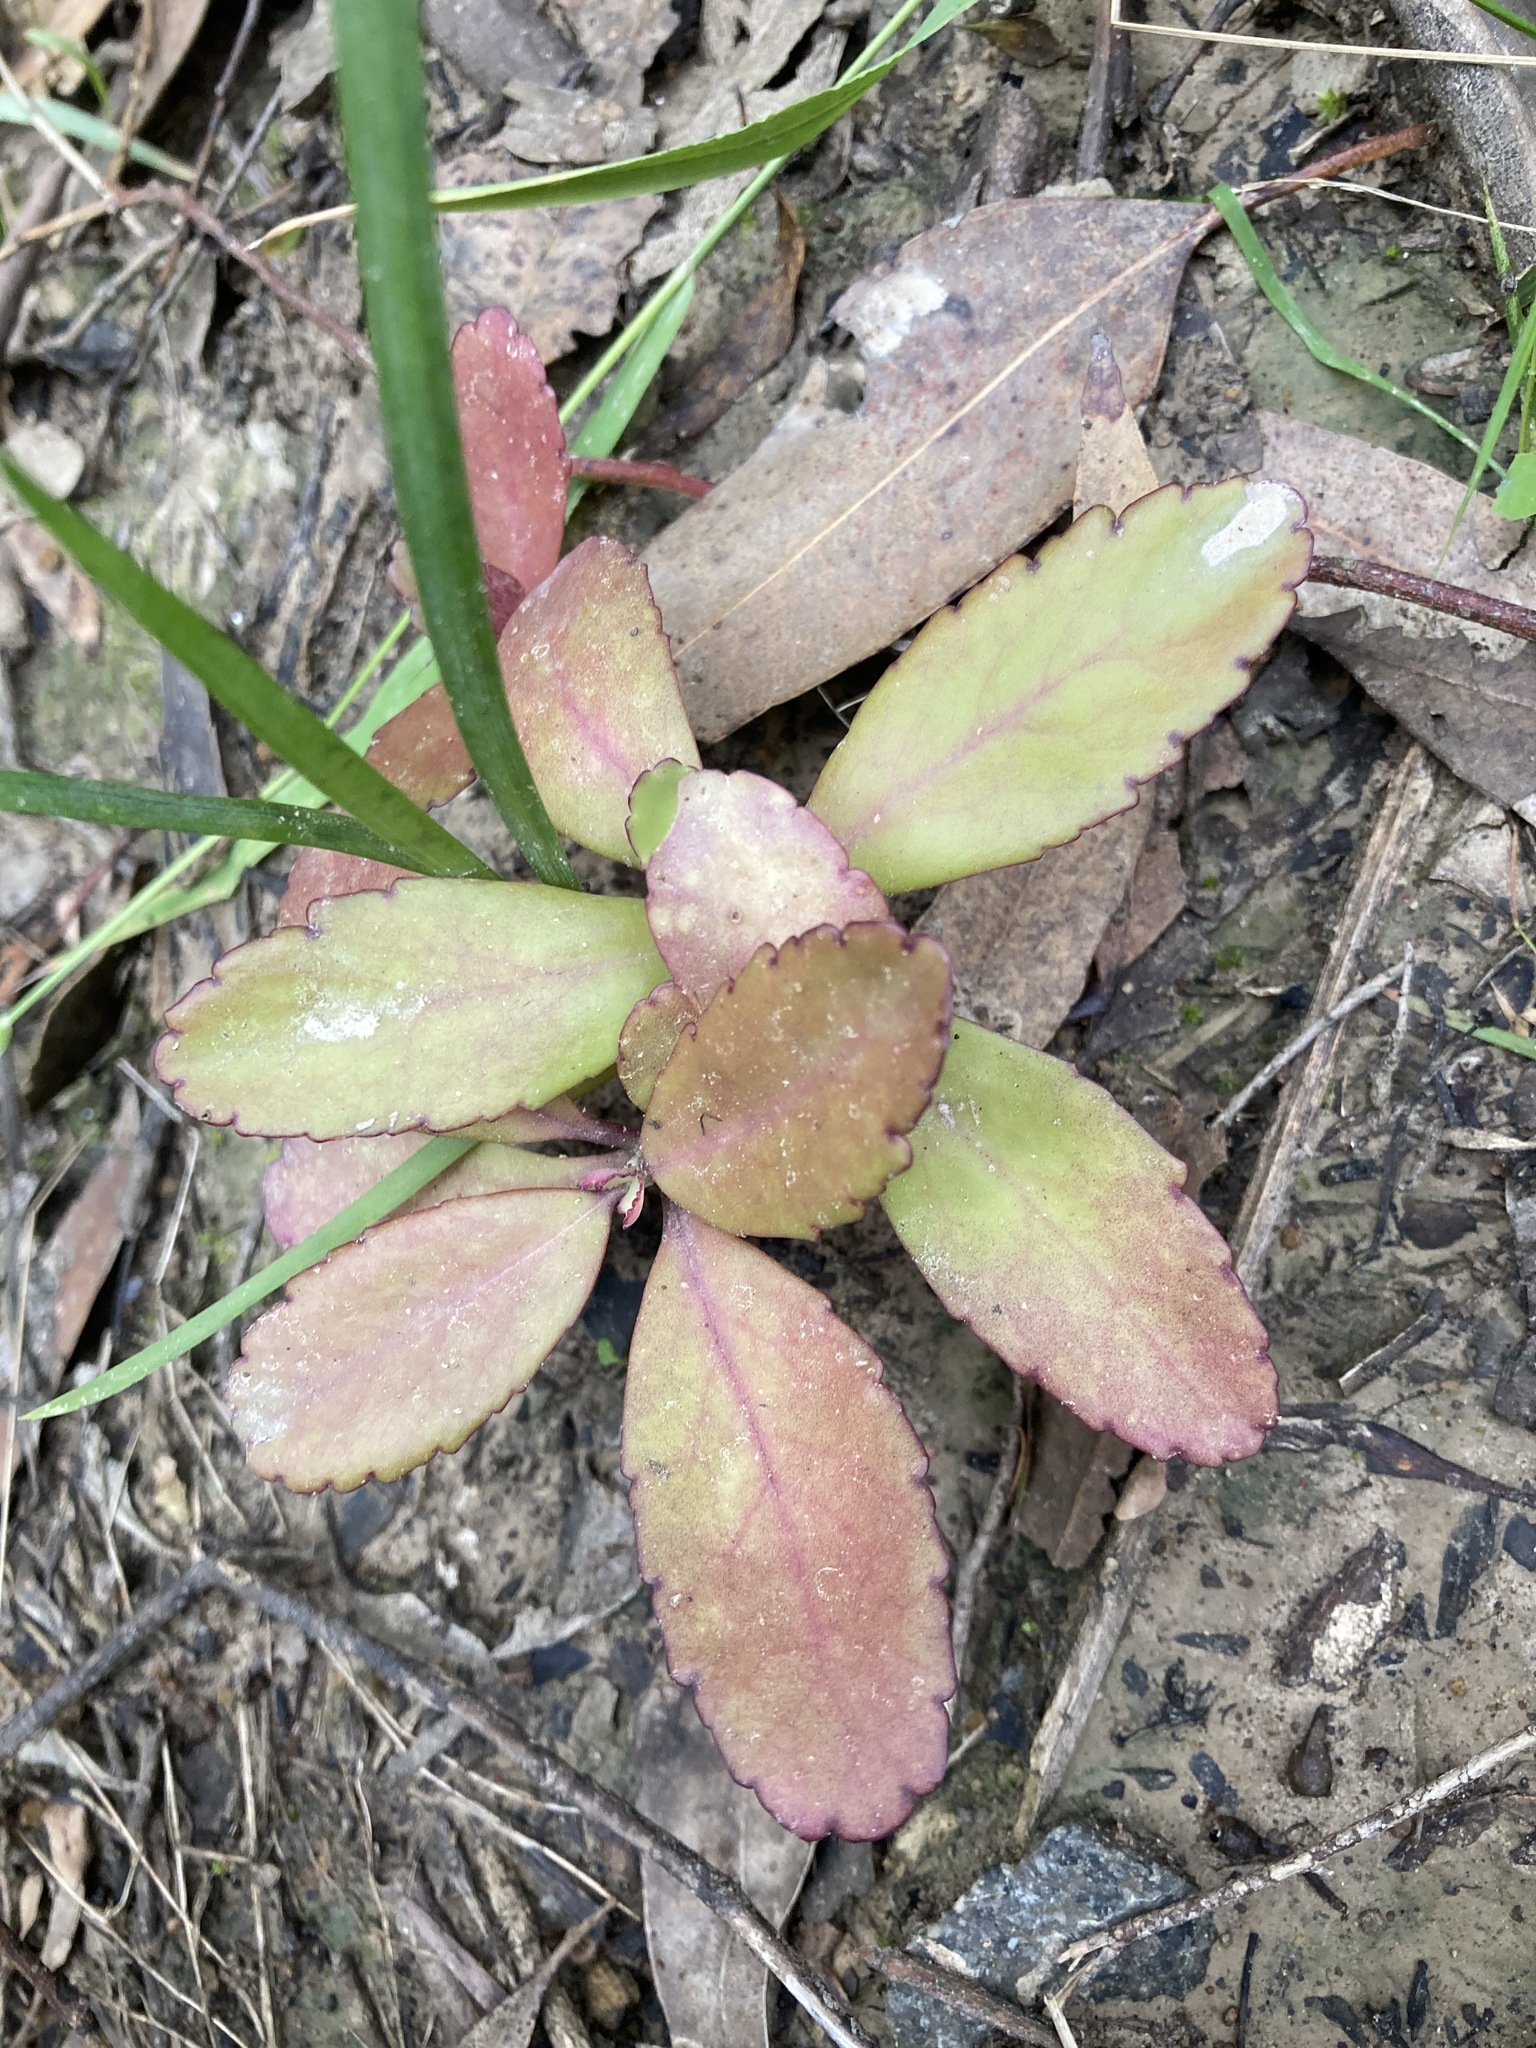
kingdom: Plantae
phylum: Tracheophyta
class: Magnoliopsida
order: Saxifragales
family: Crassulaceae
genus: Kalanchoe
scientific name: Kalanchoe pinnata
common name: Cathedral bells
